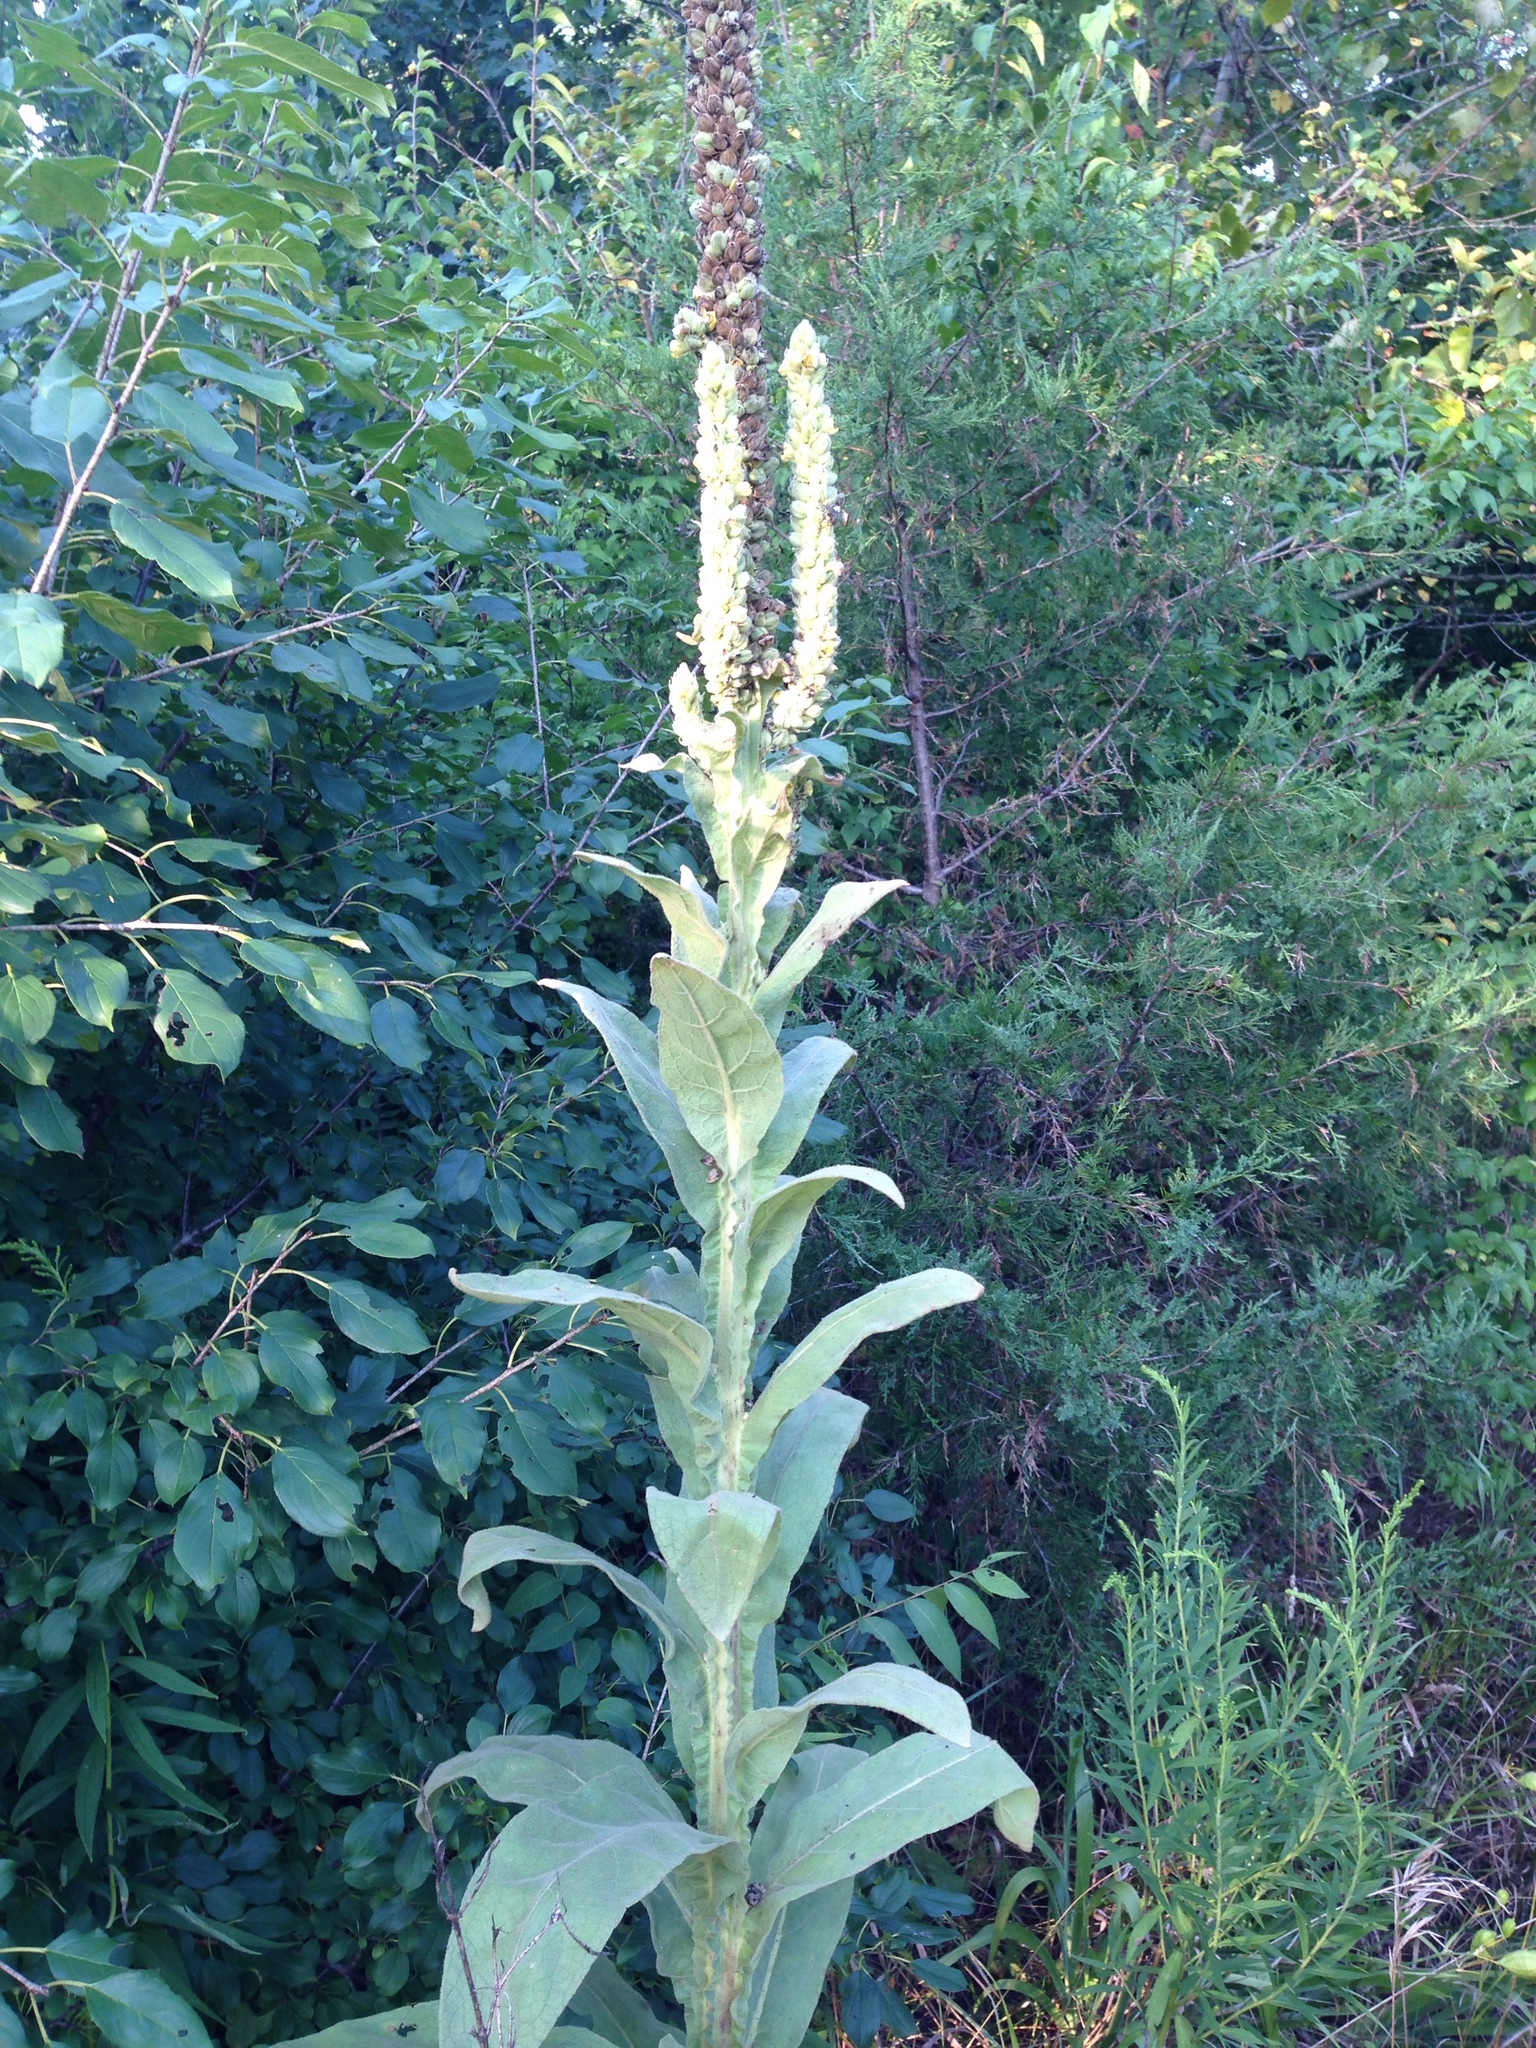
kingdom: Plantae
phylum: Tracheophyta
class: Magnoliopsida
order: Lamiales
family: Scrophulariaceae
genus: Verbascum
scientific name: Verbascum thapsus
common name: Common mullein
